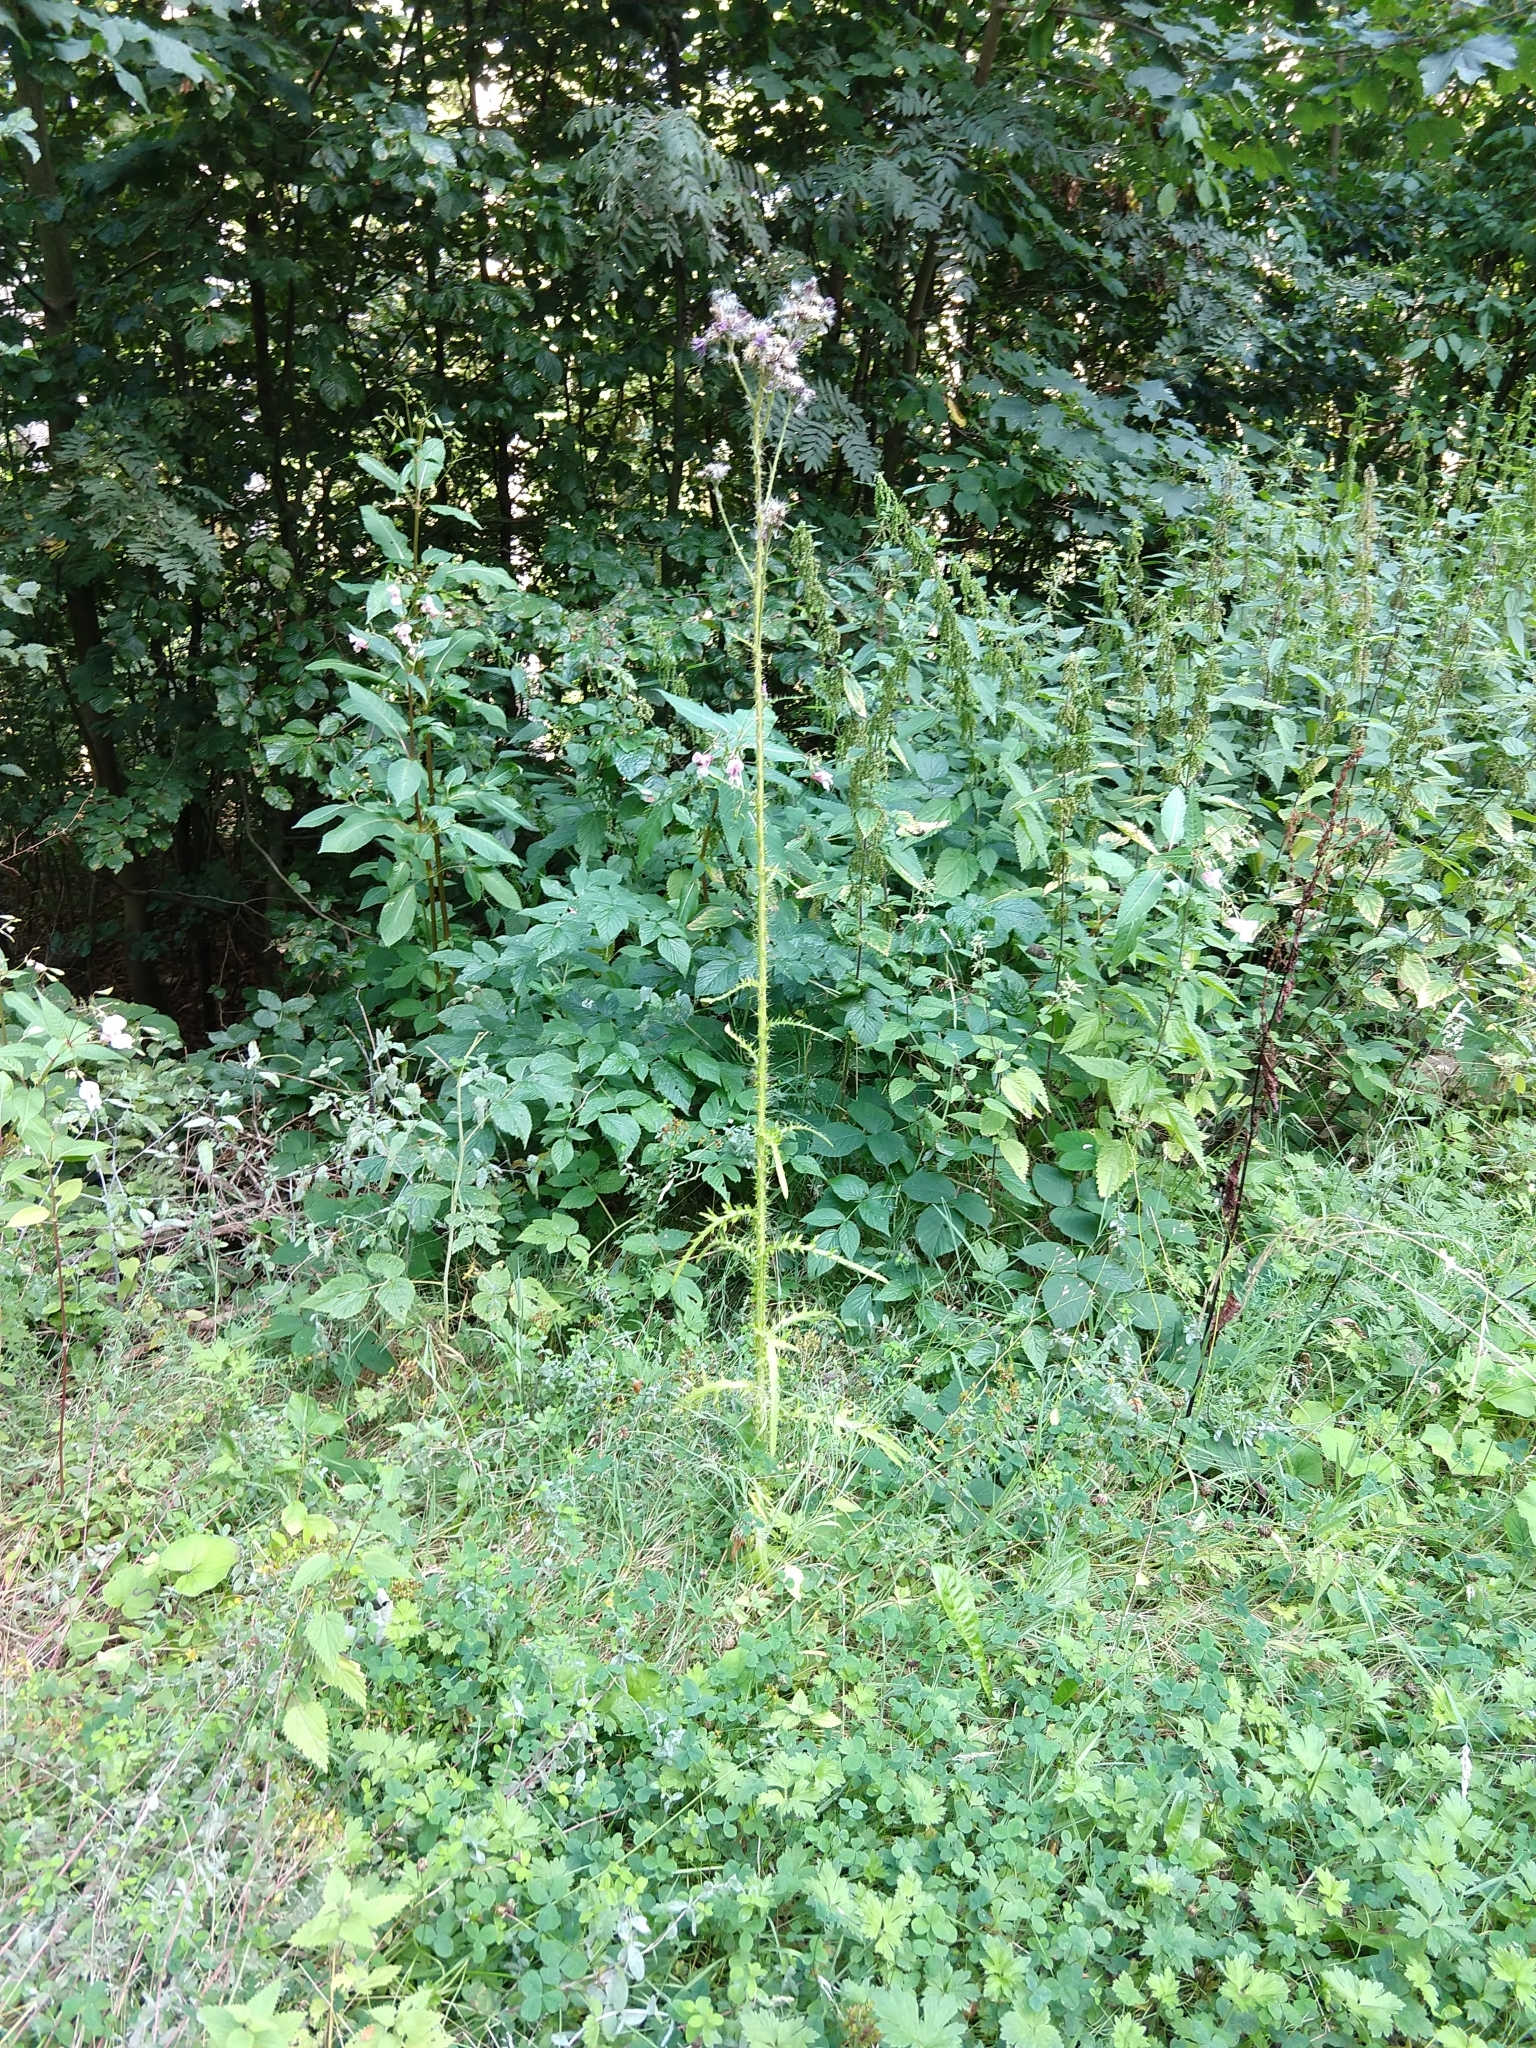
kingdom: Plantae
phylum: Tracheophyta
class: Magnoliopsida
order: Asterales
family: Asteraceae
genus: Cirsium
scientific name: Cirsium palustre
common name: Marsh thistle
